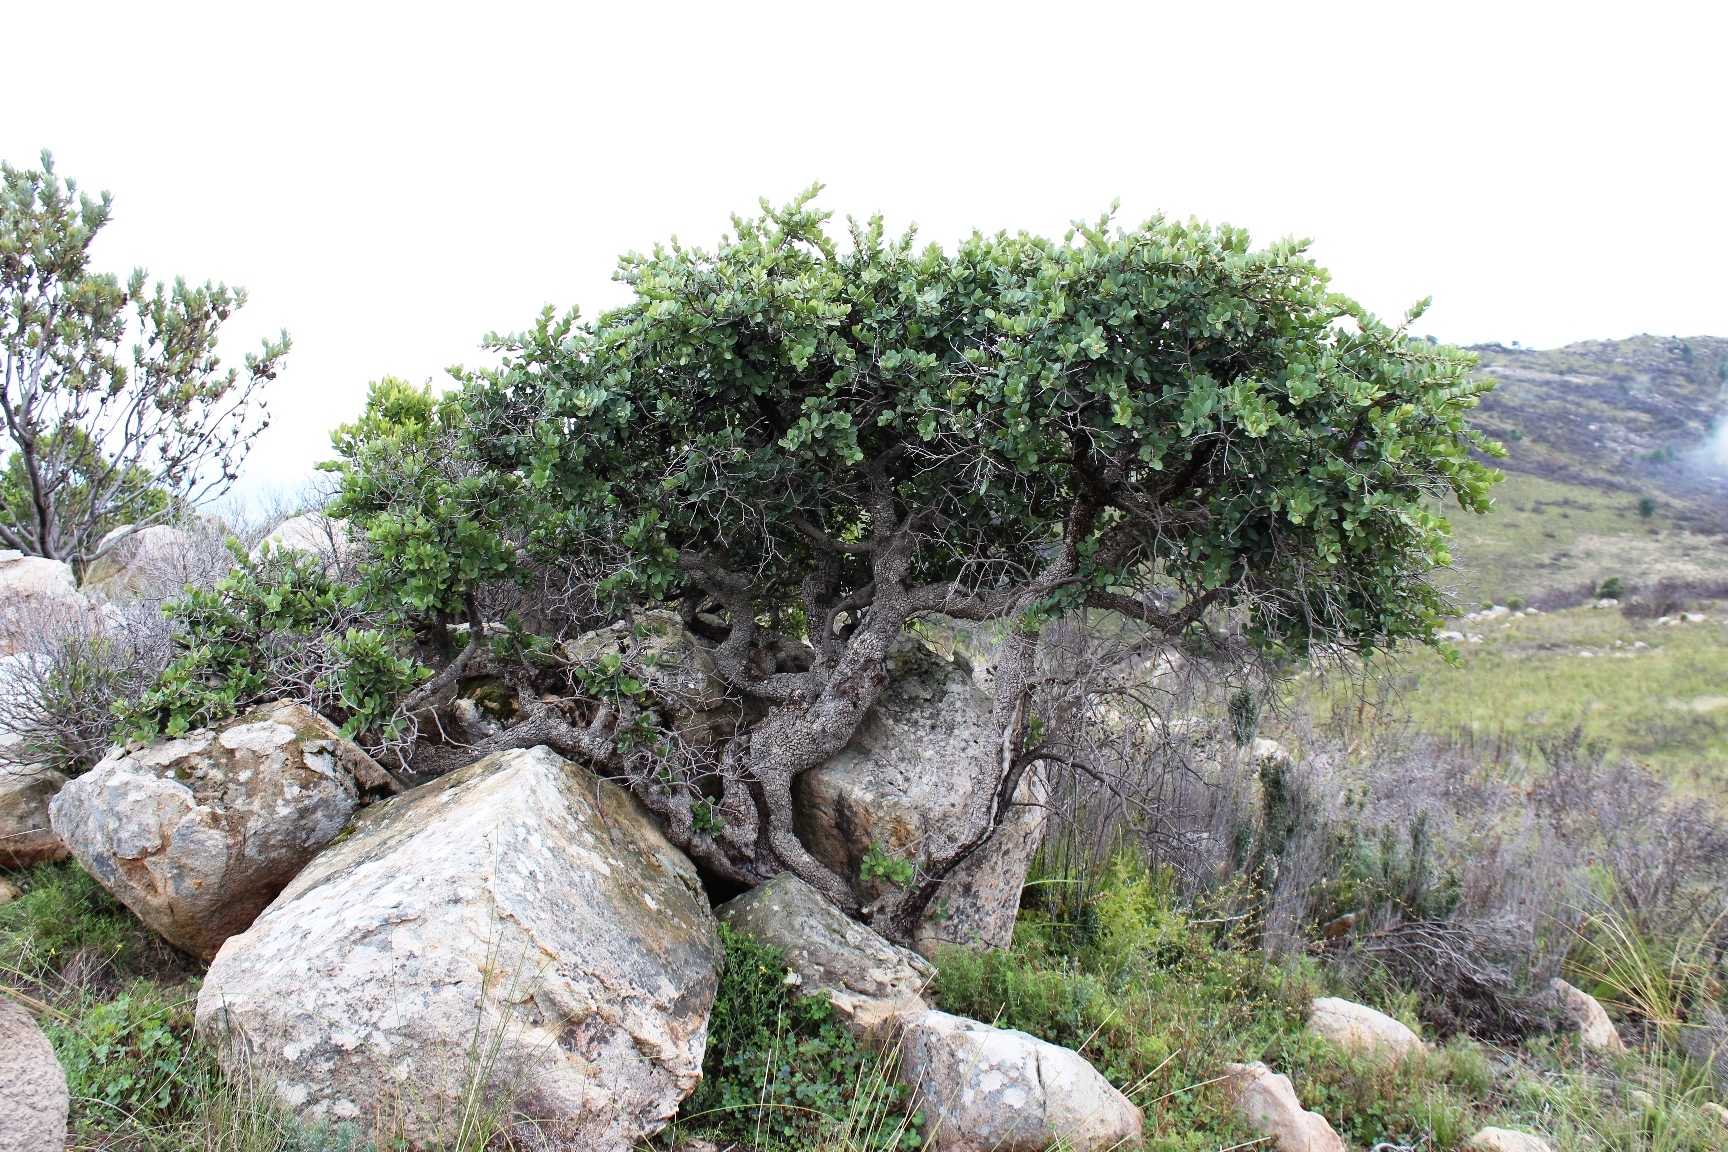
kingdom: Plantae
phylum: Tracheophyta
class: Magnoliopsida
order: Celastrales
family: Celastraceae
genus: Cassine
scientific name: Cassine peragua
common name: Cape saffron
